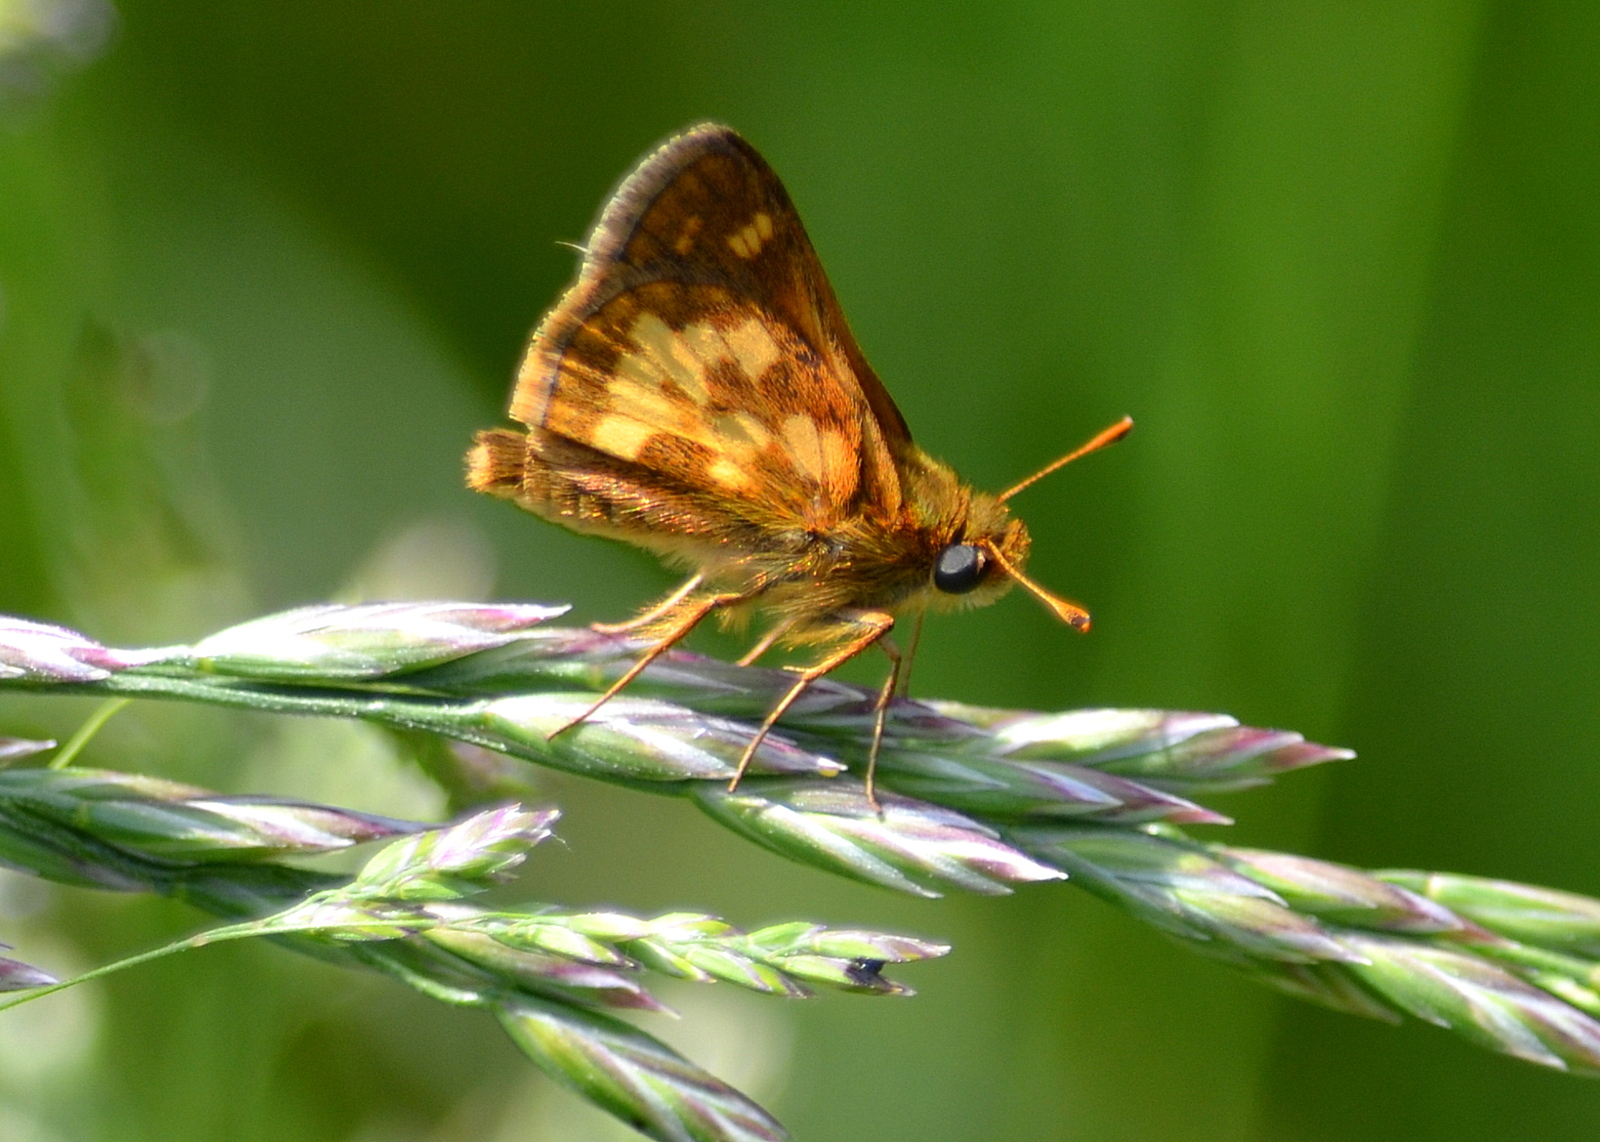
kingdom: Animalia
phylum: Arthropoda
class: Insecta
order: Lepidoptera
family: Hesperiidae
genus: Polites
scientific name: Polites coras
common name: Peck's skipper
